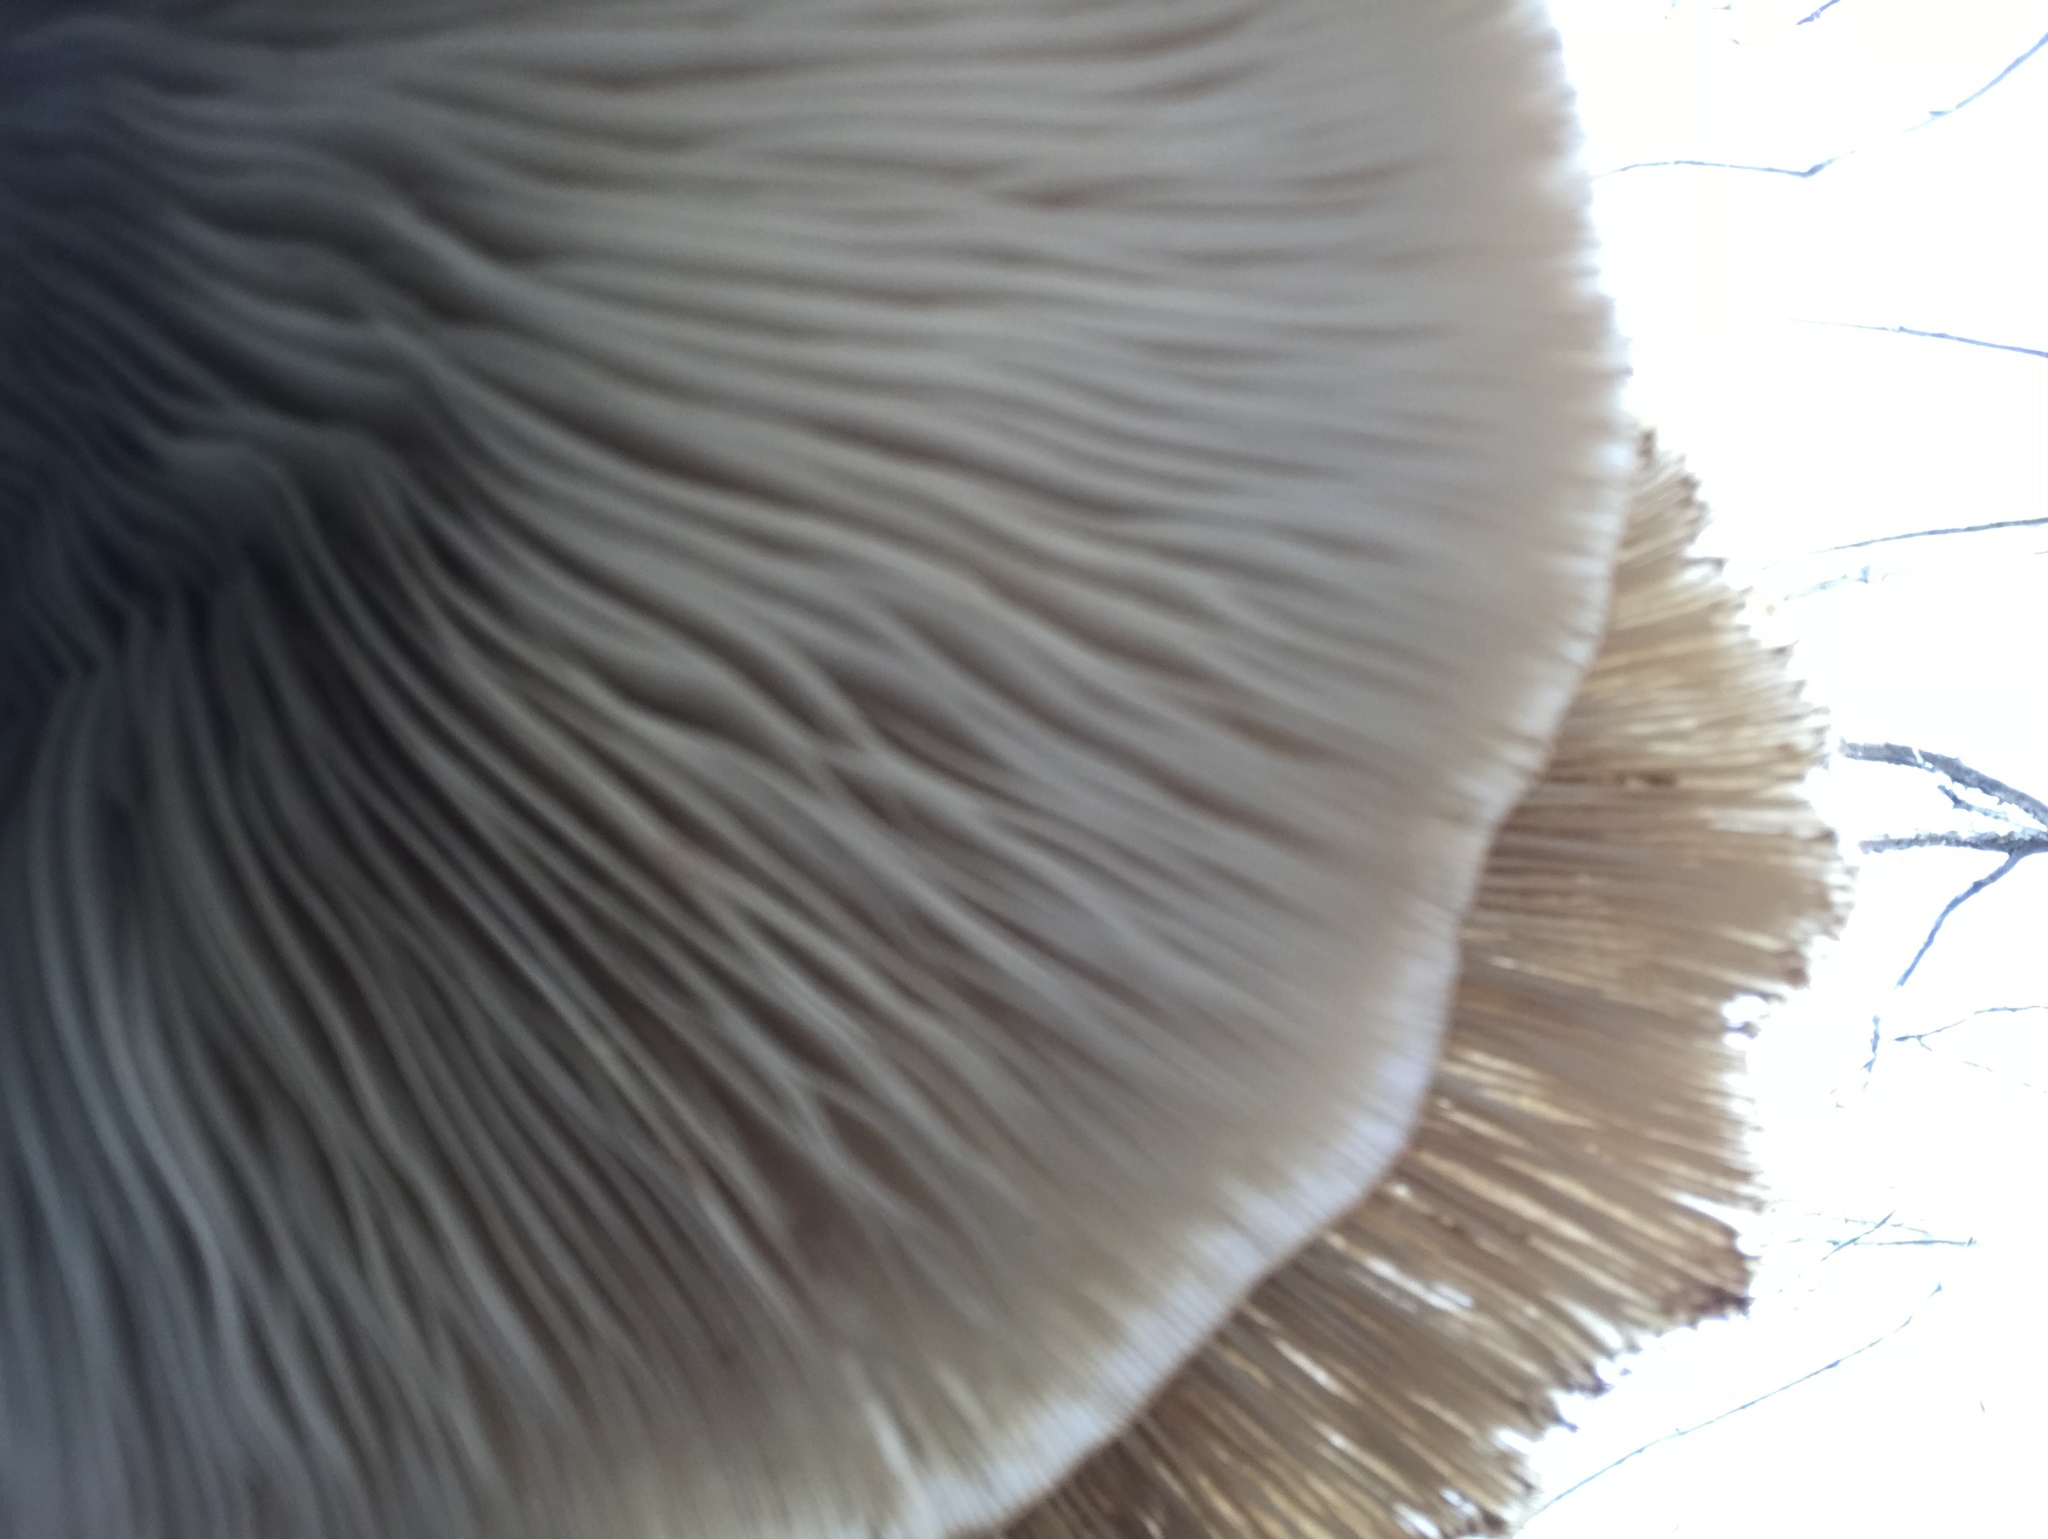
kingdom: Fungi
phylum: Basidiomycota
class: Agaricomycetes
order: Agaricales
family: Pleurotaceae
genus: Pleurotus
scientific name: Pleurotus ostreatus
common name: Oyster mushroom
